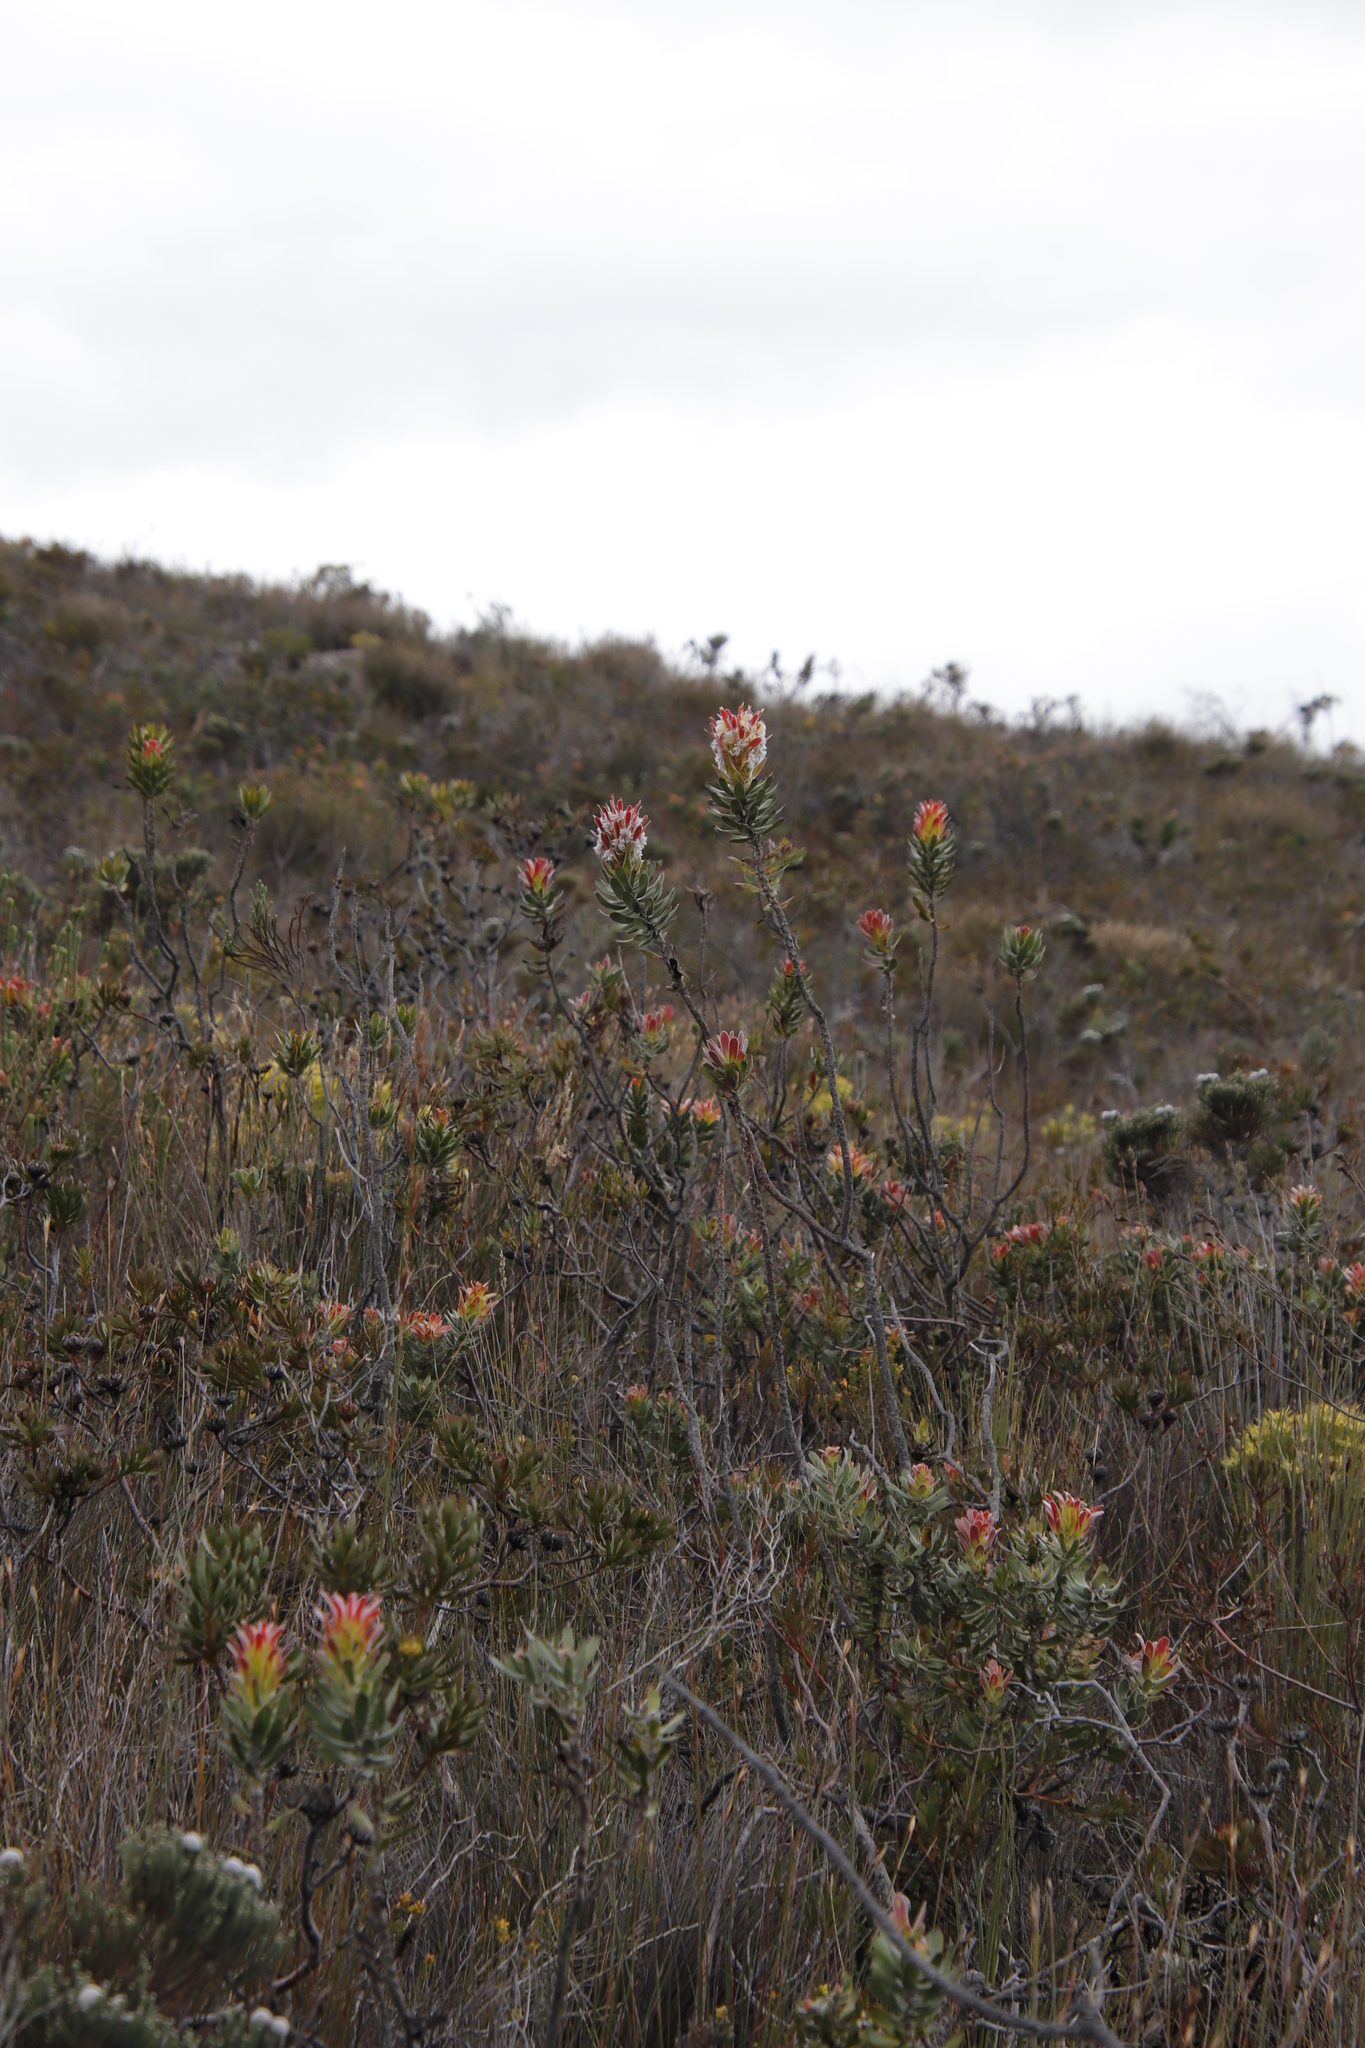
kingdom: Plantae
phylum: Tracheophyta
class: Magnoliopsida
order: Proteales
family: Proteaceae
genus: Mimetes
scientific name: Mimetes cucullatus
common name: Common pagoda
